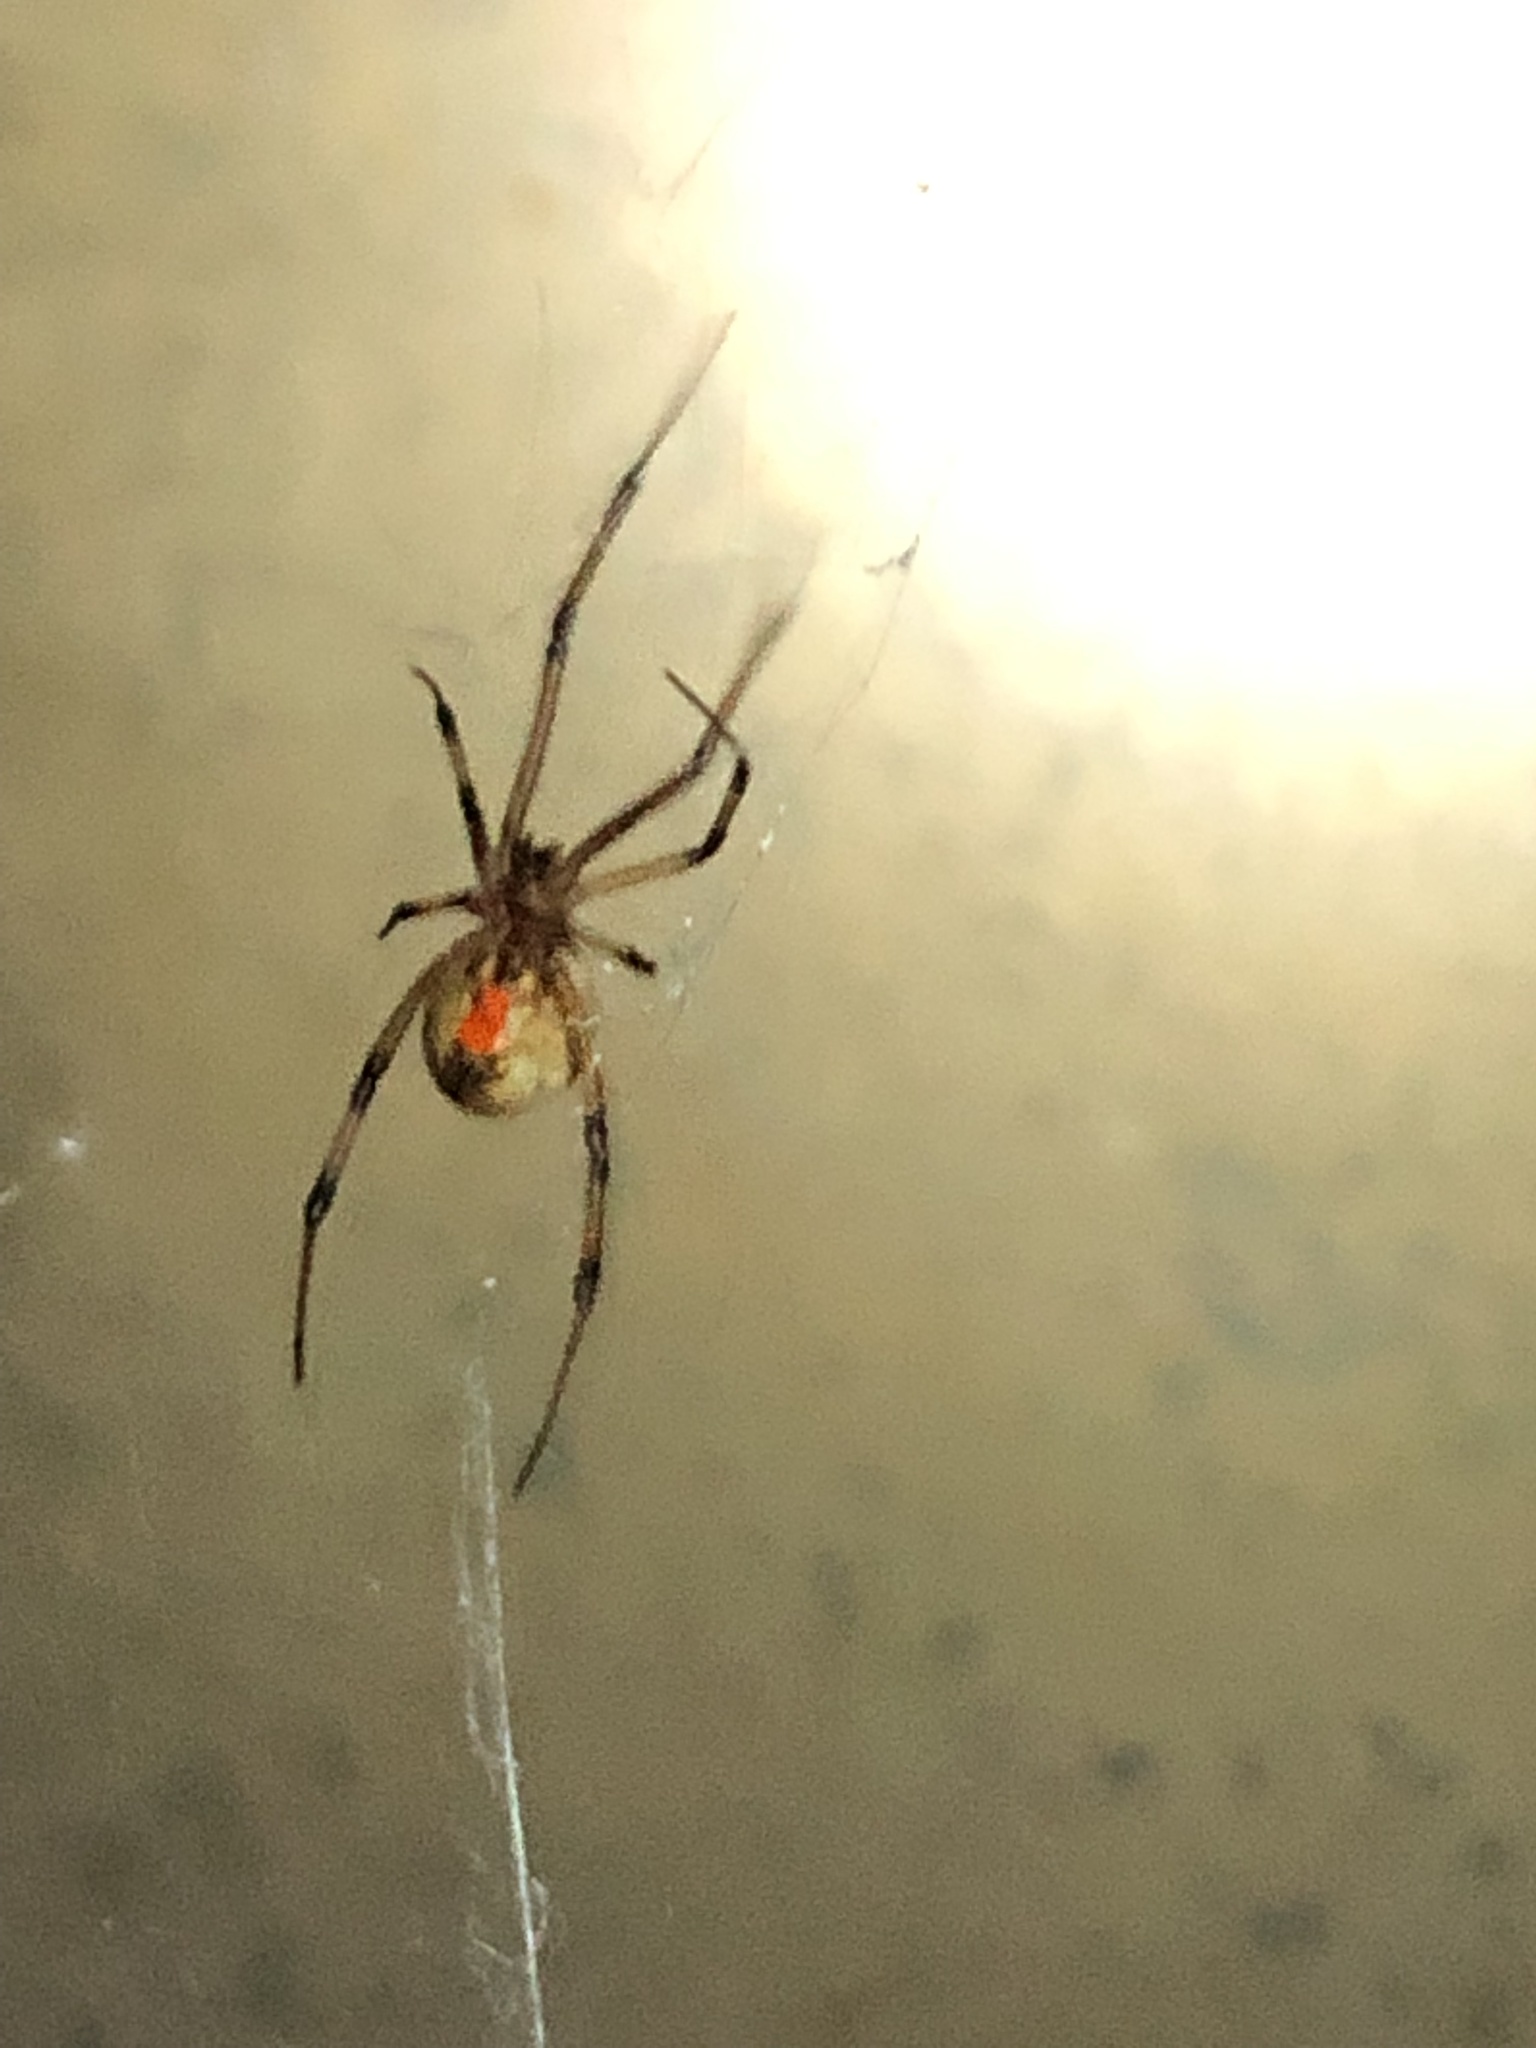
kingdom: Animalia
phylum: Arthropoda
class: Arachnida
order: Araneae
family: Theridiidae
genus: Latrodectus
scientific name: Latrodectus geometricus
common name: Brown widow spider
